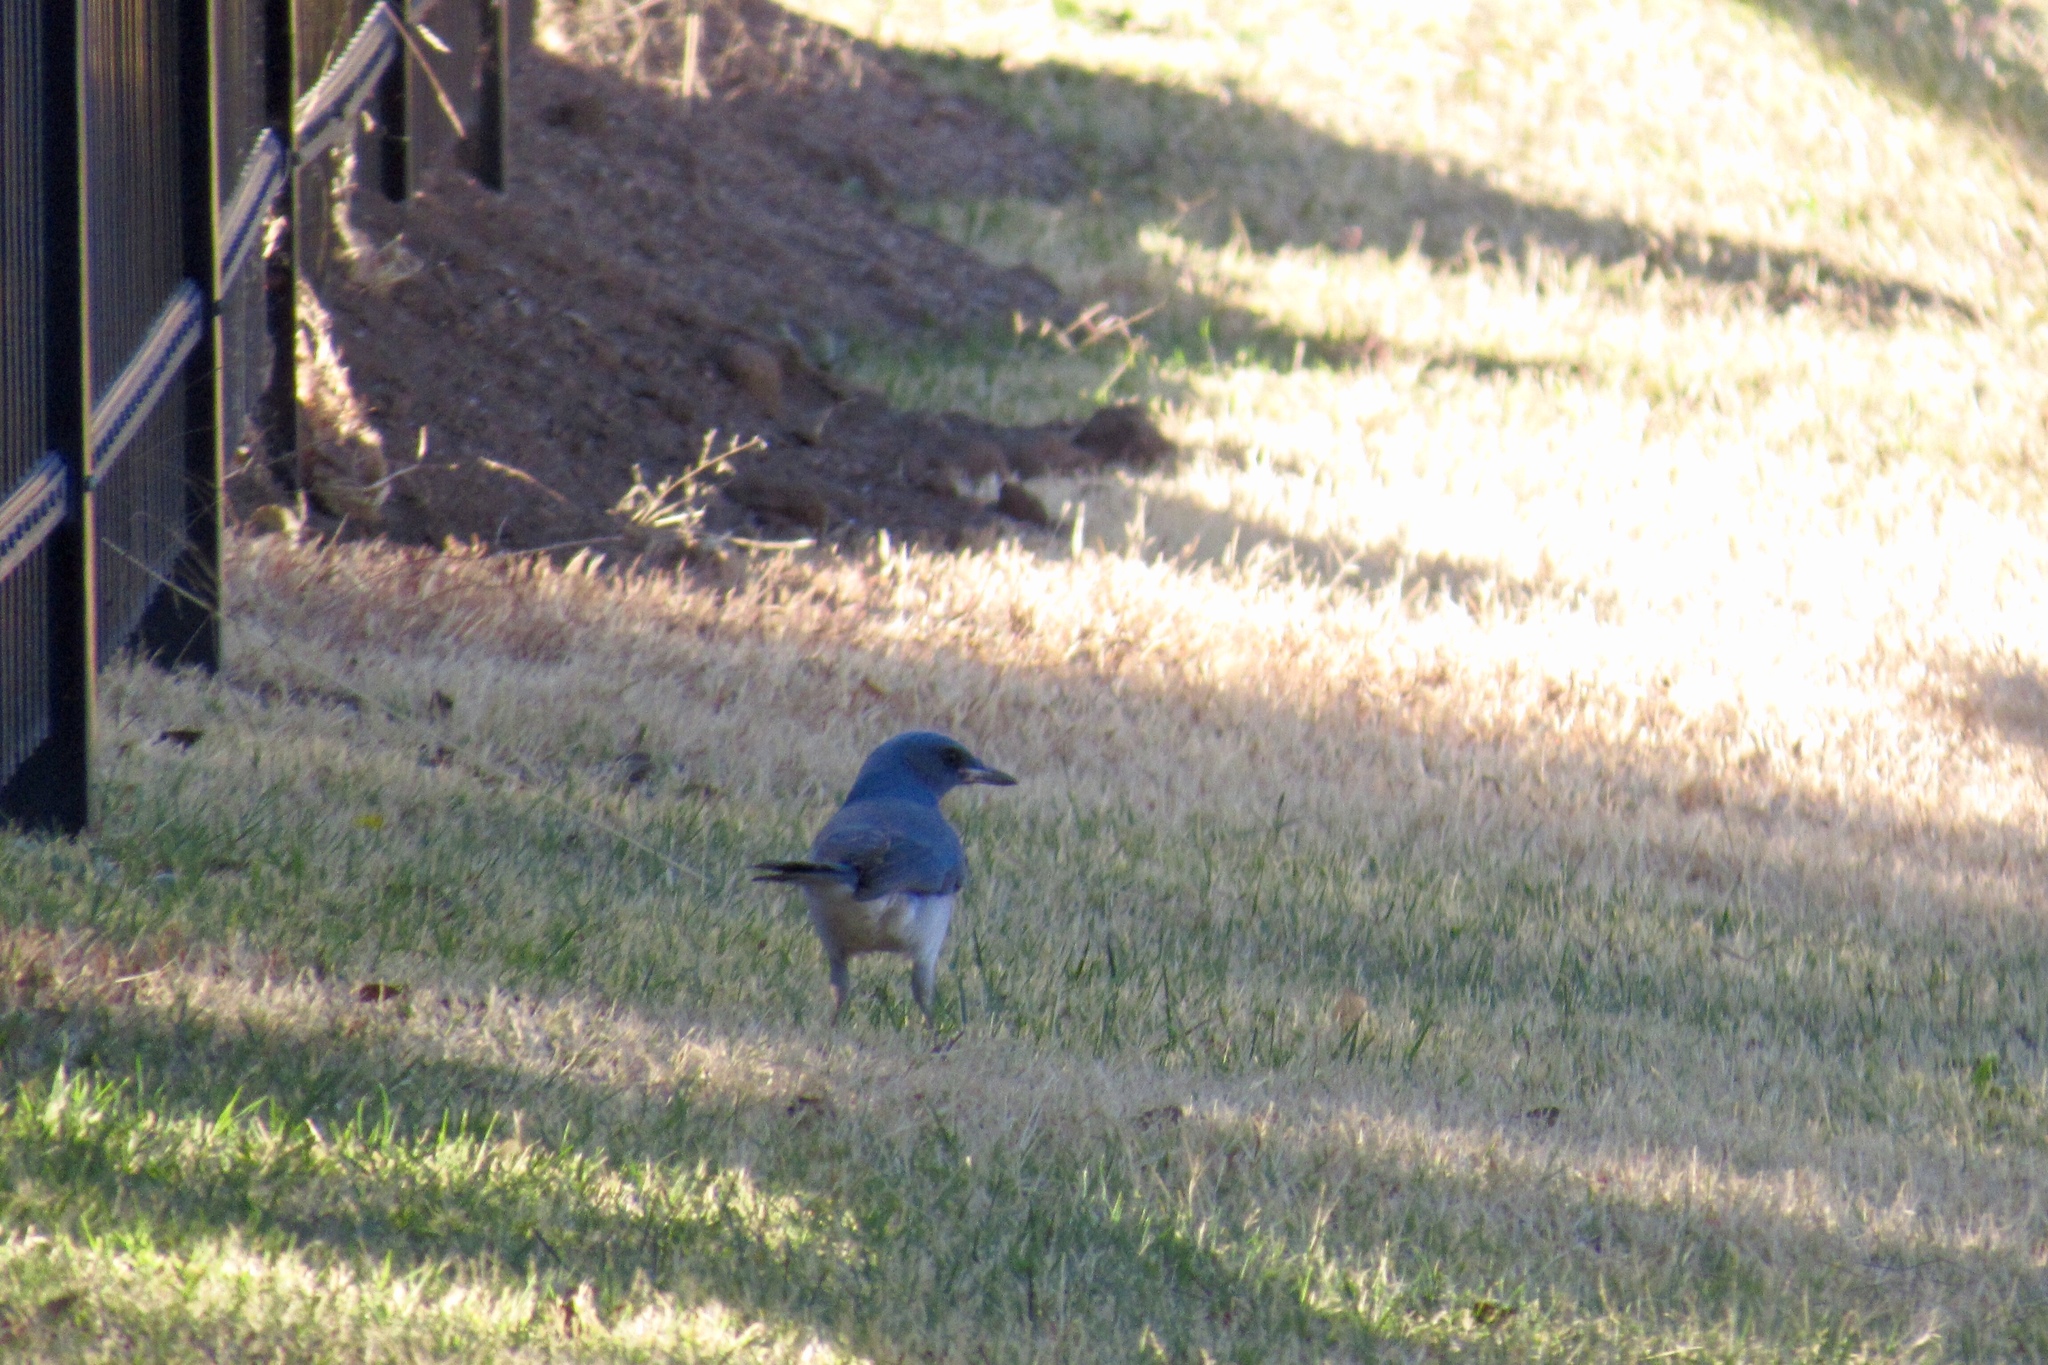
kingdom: Animalia
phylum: Chordata
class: Aves
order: Passeriformes
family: Corvidae
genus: Aphelocoma
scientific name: Aphelocoma wollweberi
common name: Mexican jay
